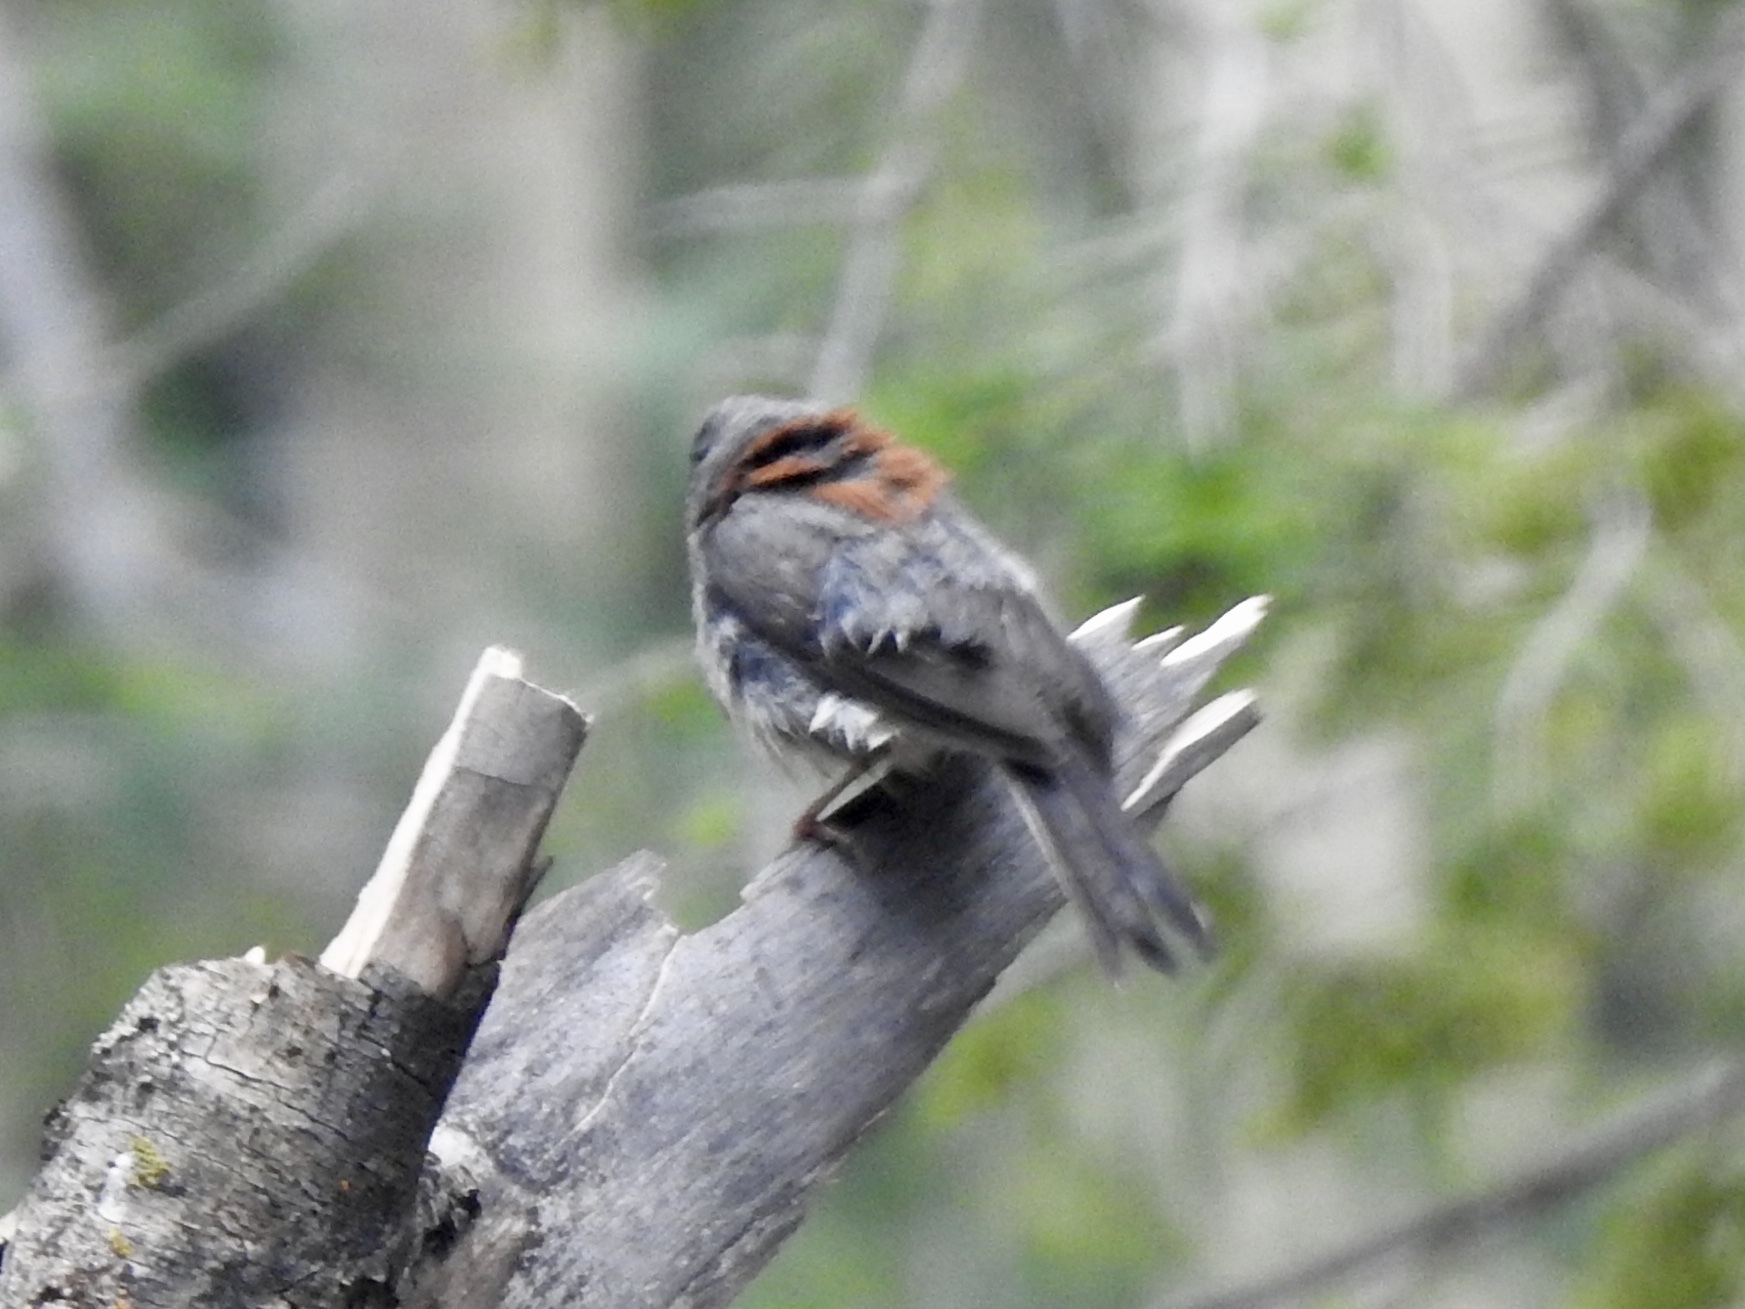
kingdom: Animalia
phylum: Chordata
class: Aves
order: Passeriformes
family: Passerellidae
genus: Junco
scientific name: Junco hyemalis
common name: Dark-eyed junco
